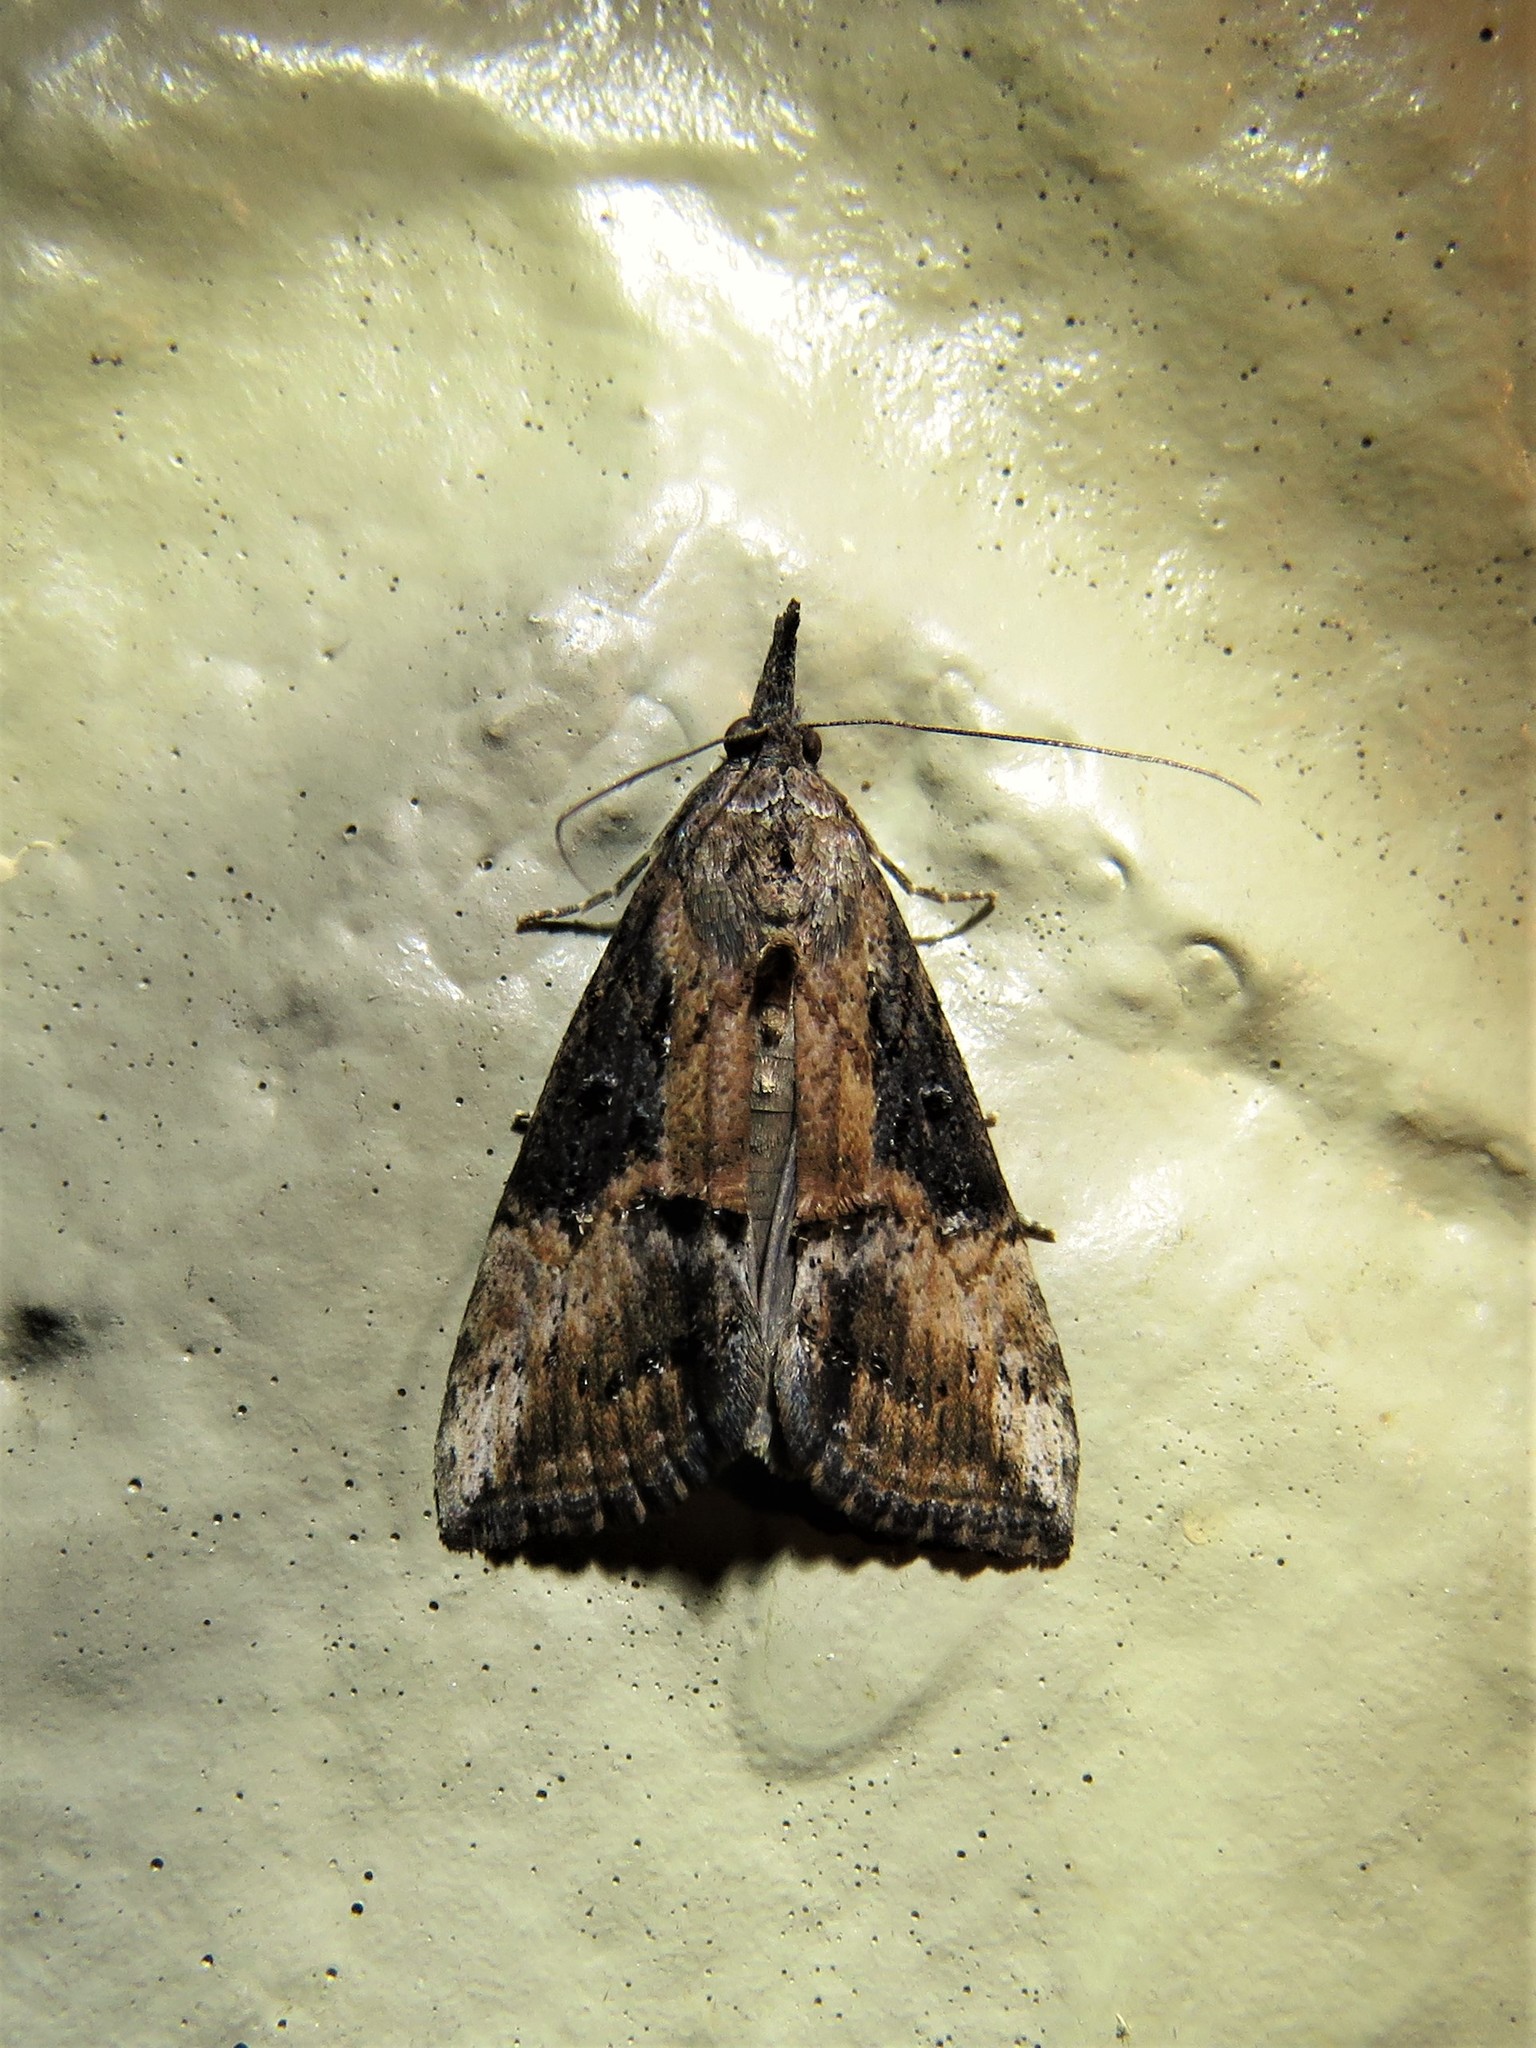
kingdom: Animalia
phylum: Arthropoda
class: Insecta
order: Lepidoptera
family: Erebidae
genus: Hypena
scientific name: Hypena scabra
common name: Green cloverworm
